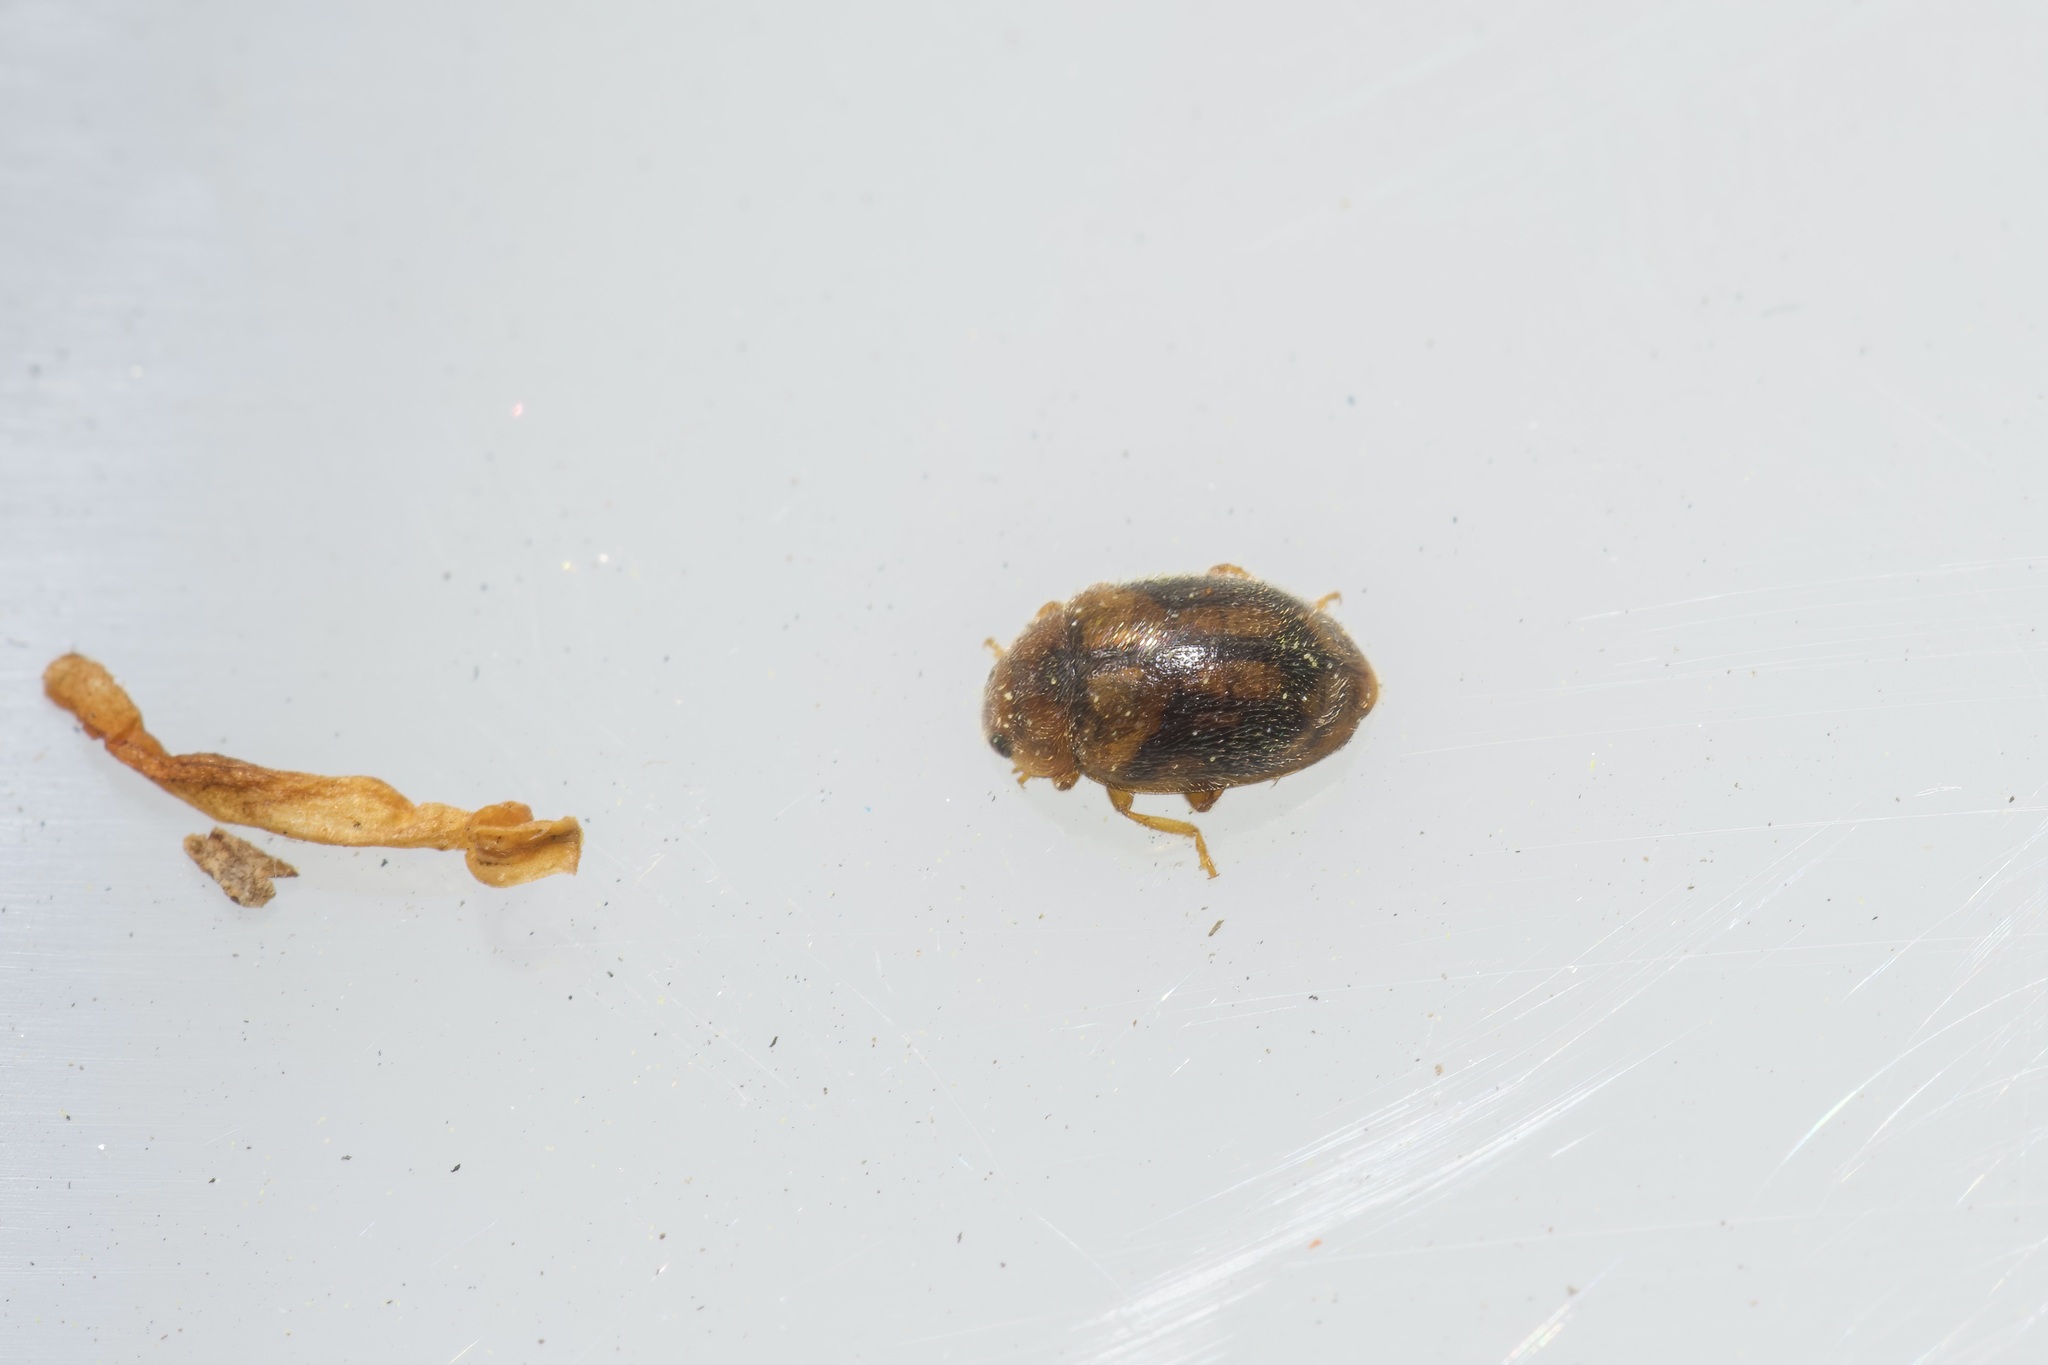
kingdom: Animalia
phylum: Arthropoda
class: Insecta
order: Coleoptera
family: Coccinellidae
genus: Rhyzobius
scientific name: Rhyzobius chrysomeloides
